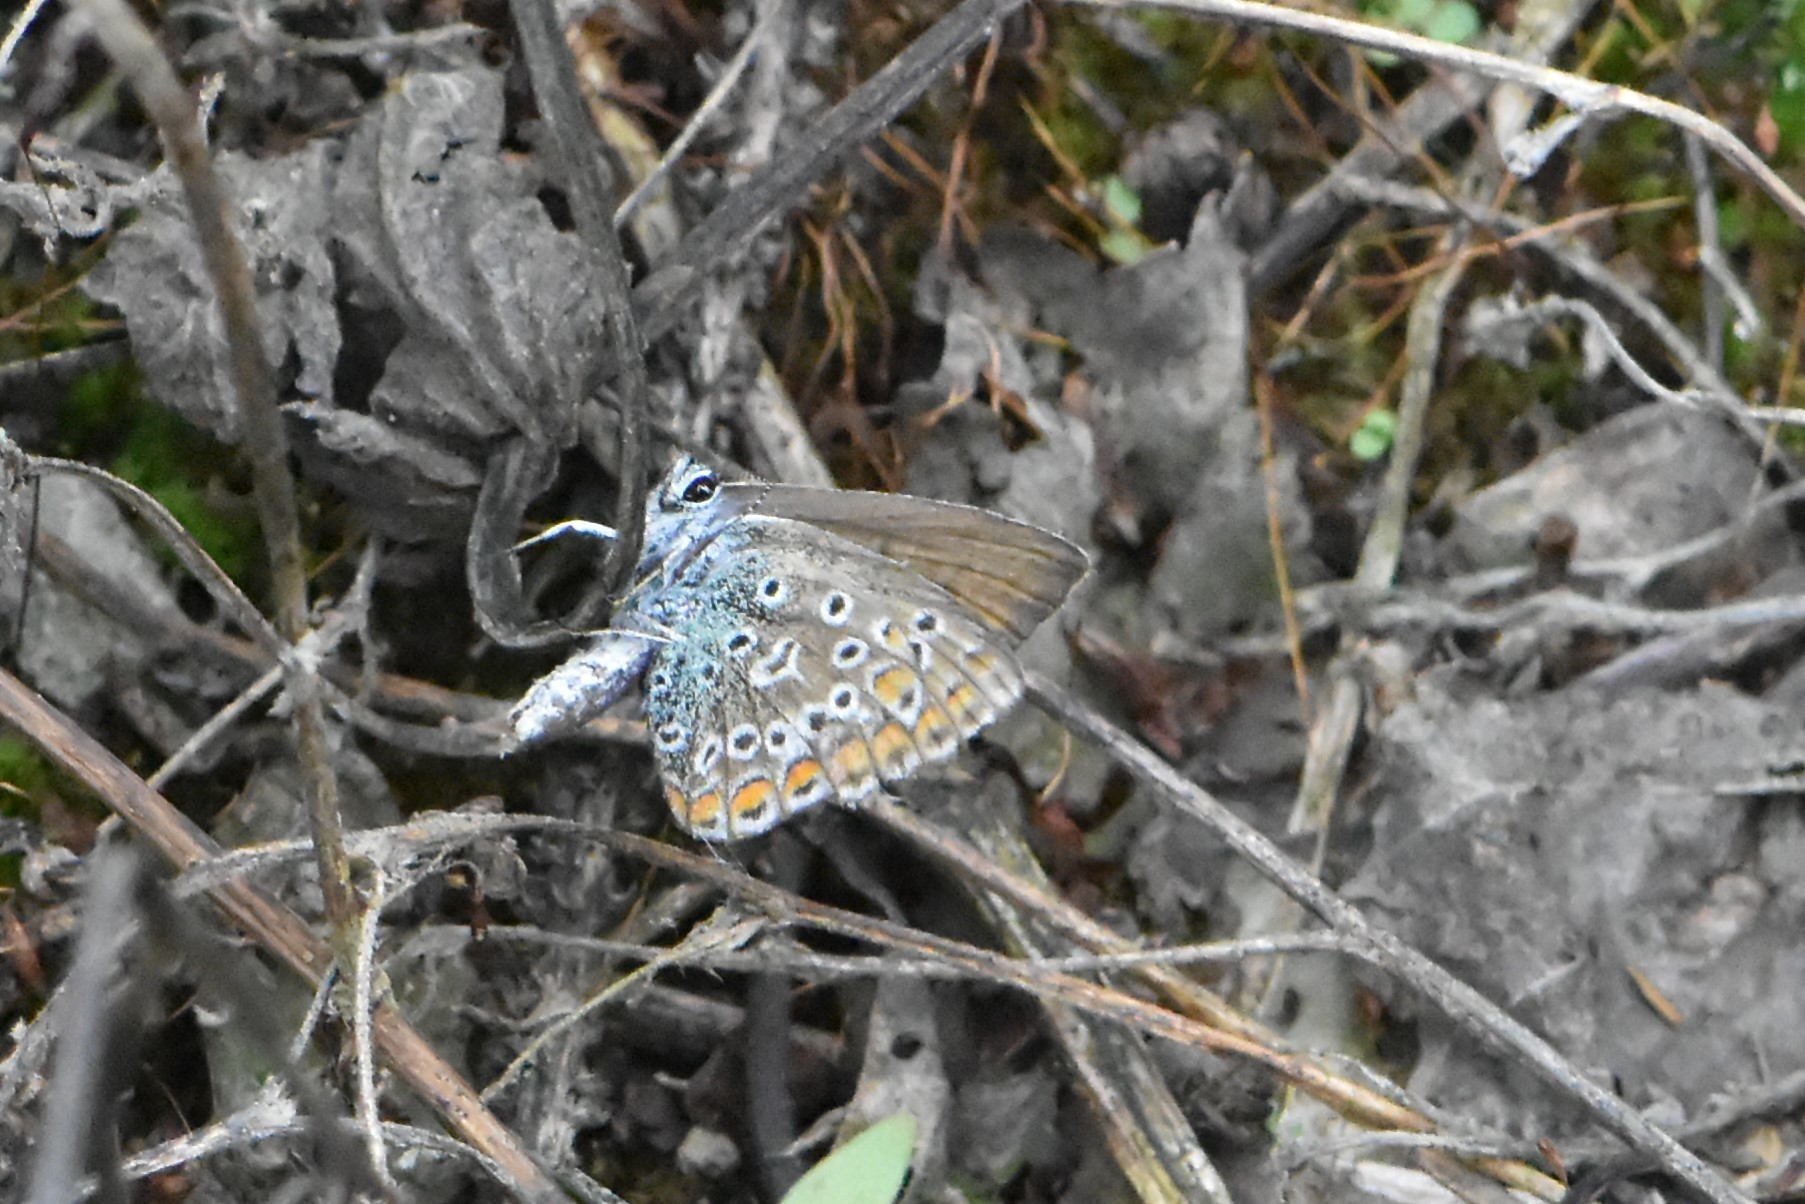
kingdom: Animalia
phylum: Arthropoda
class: Insecta
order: Lepidoptera
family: Lycaenidae
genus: Polyommatus
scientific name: Polyommatus icarus
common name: Common blue
